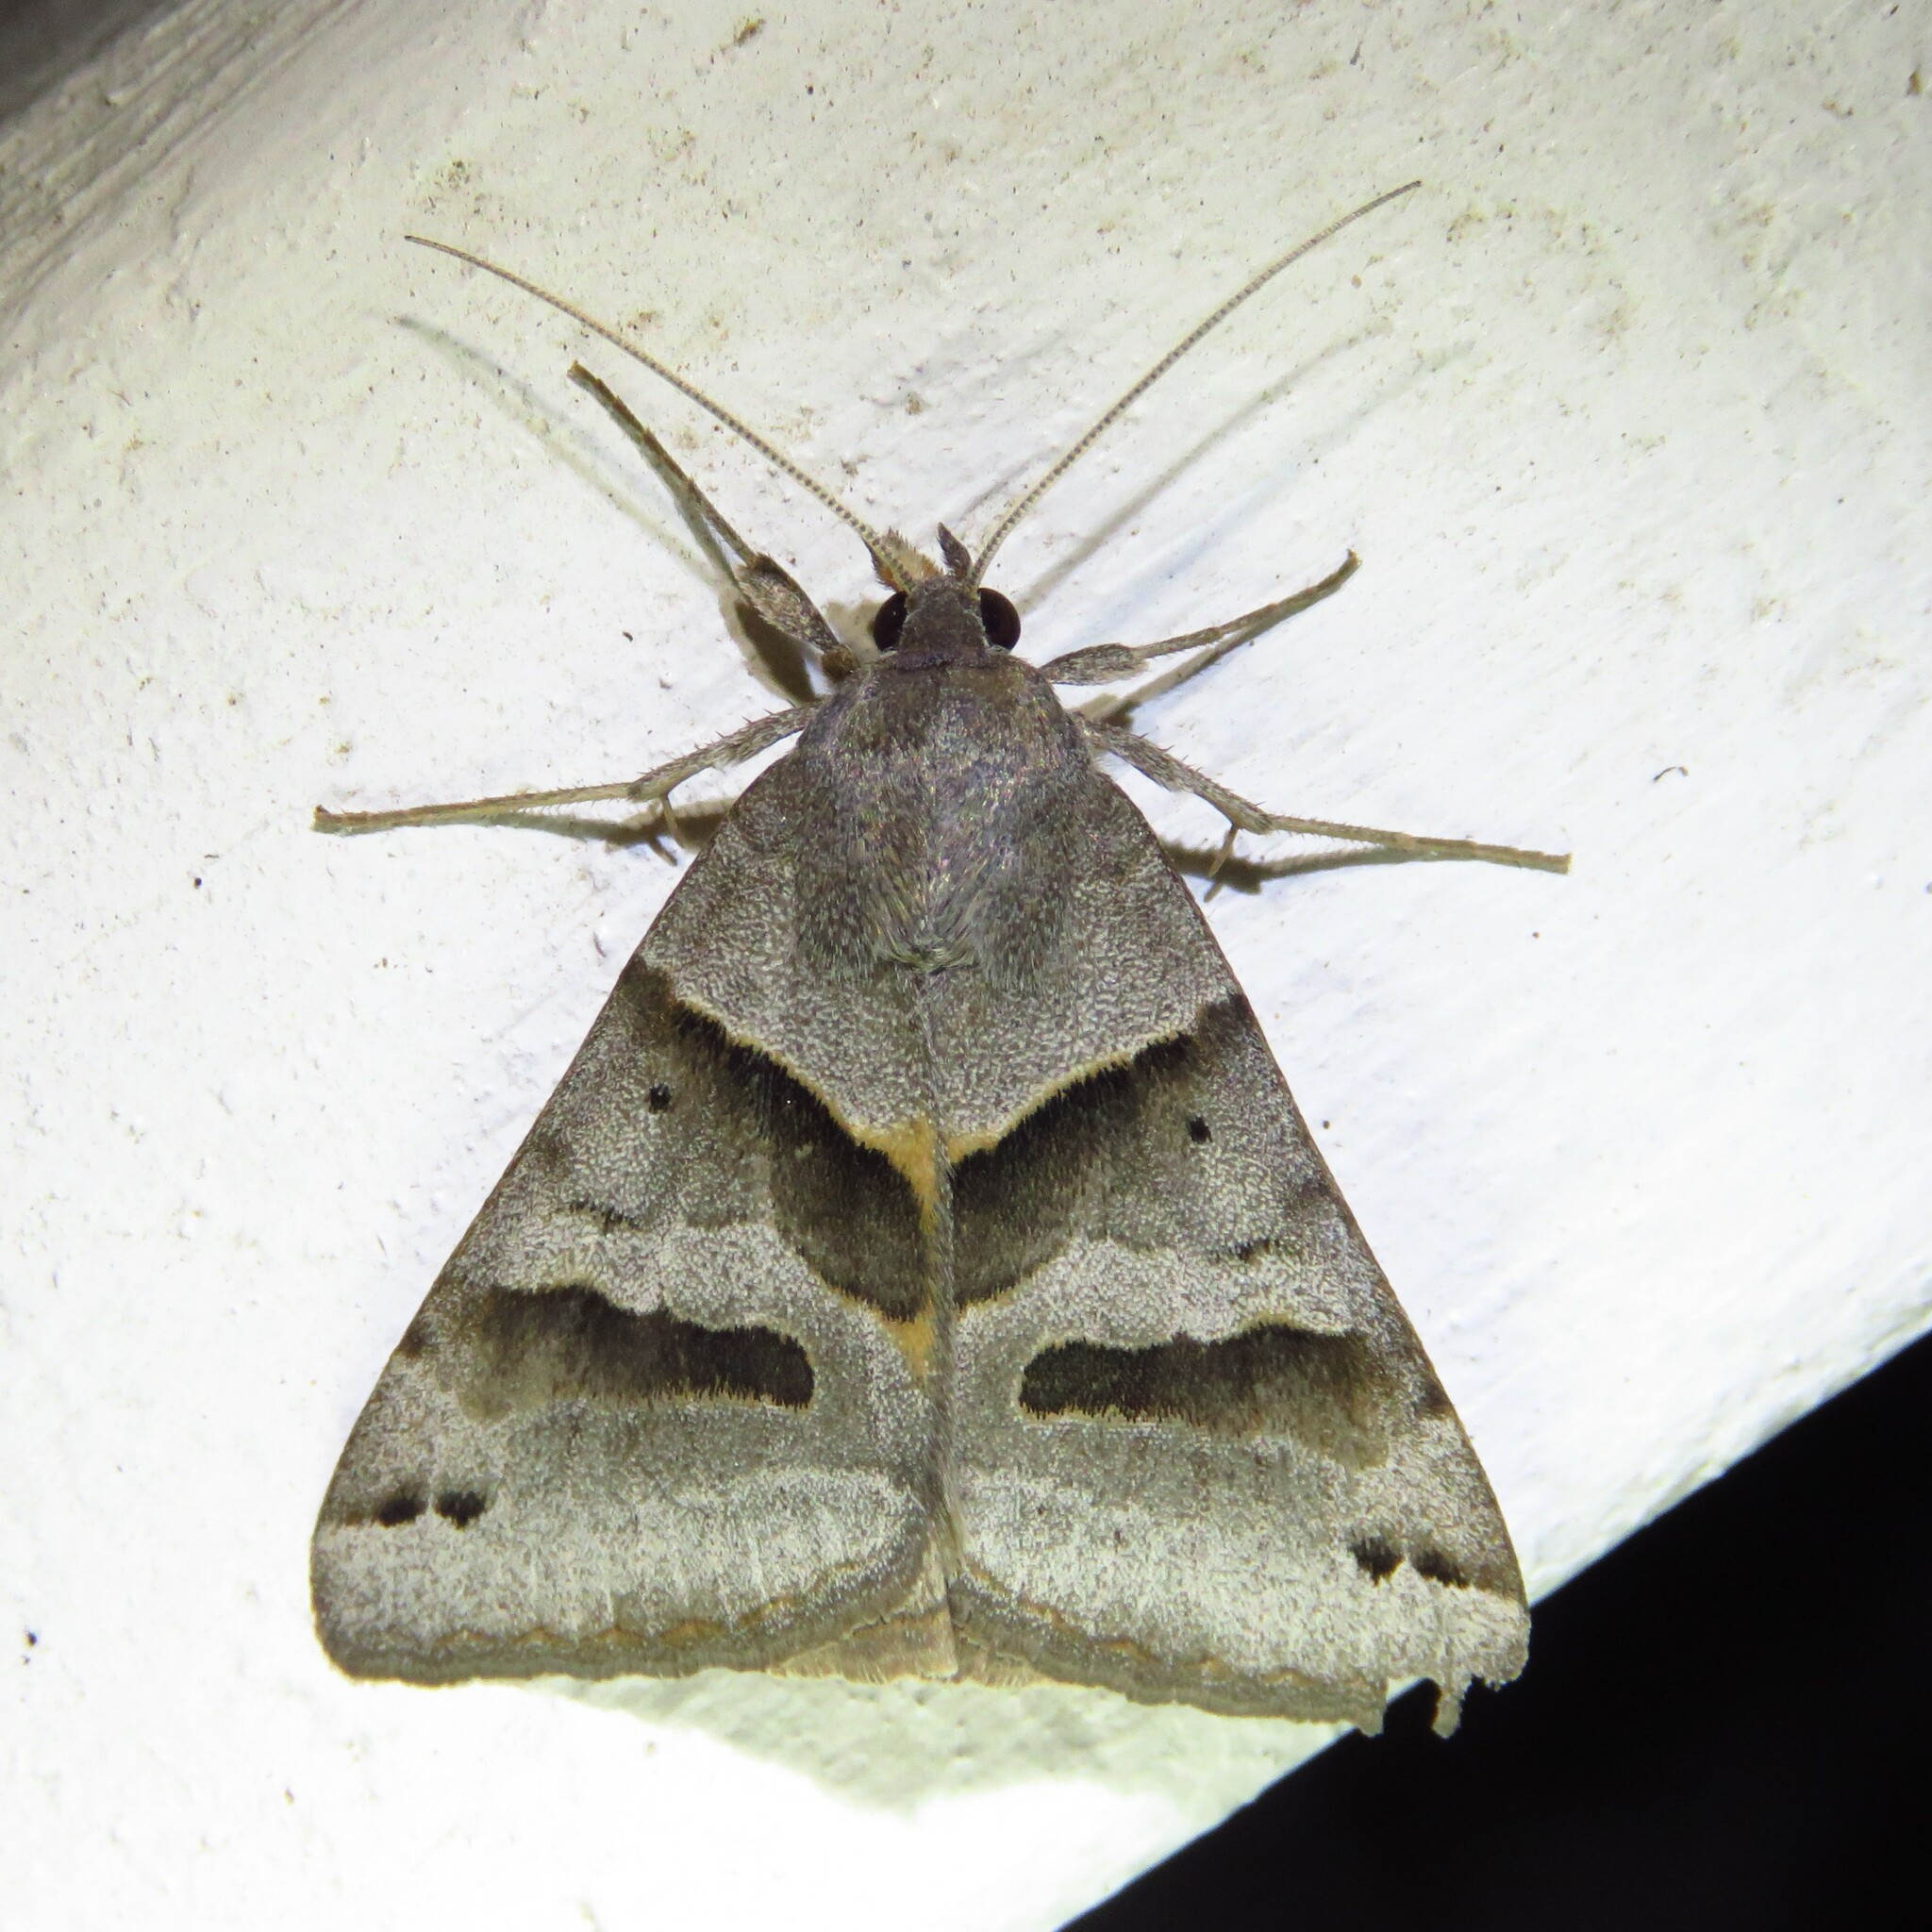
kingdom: Animalia
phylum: Arthropoda
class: Insecta
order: Lepidoptera
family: Erebidae
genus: Caenurgina
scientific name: Caenurgina erechtea
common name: Forage looper moth
